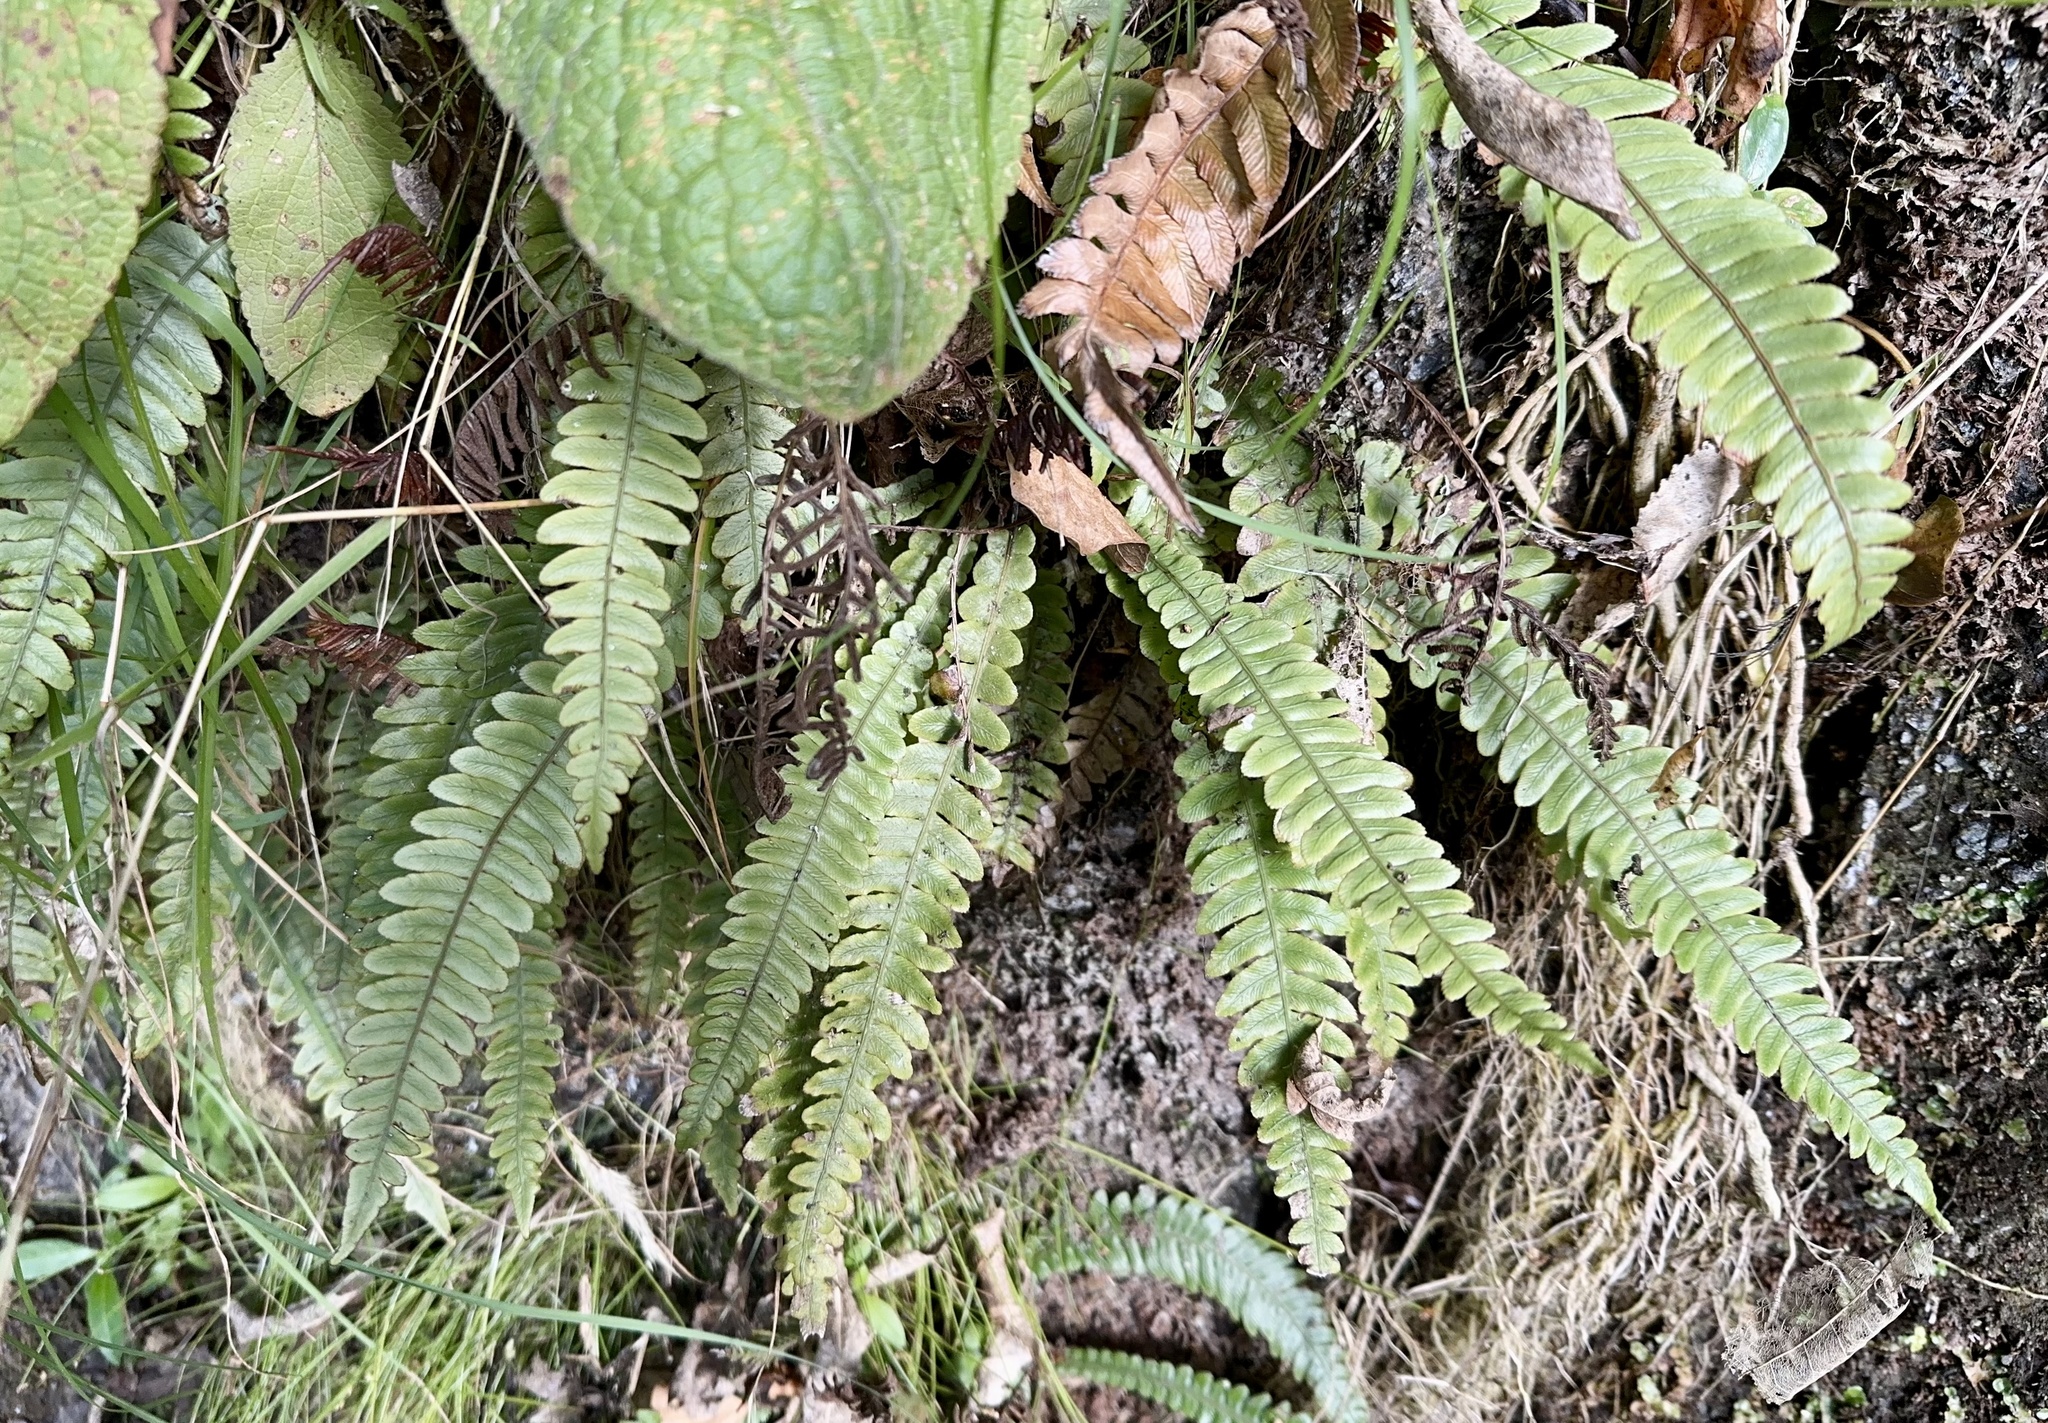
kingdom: Plantae
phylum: Tracheophyta
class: Polypodiopsida
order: Polypodiales
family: Blechnaceae
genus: Austroblechnum
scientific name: Austroblechnum lanceolatum
